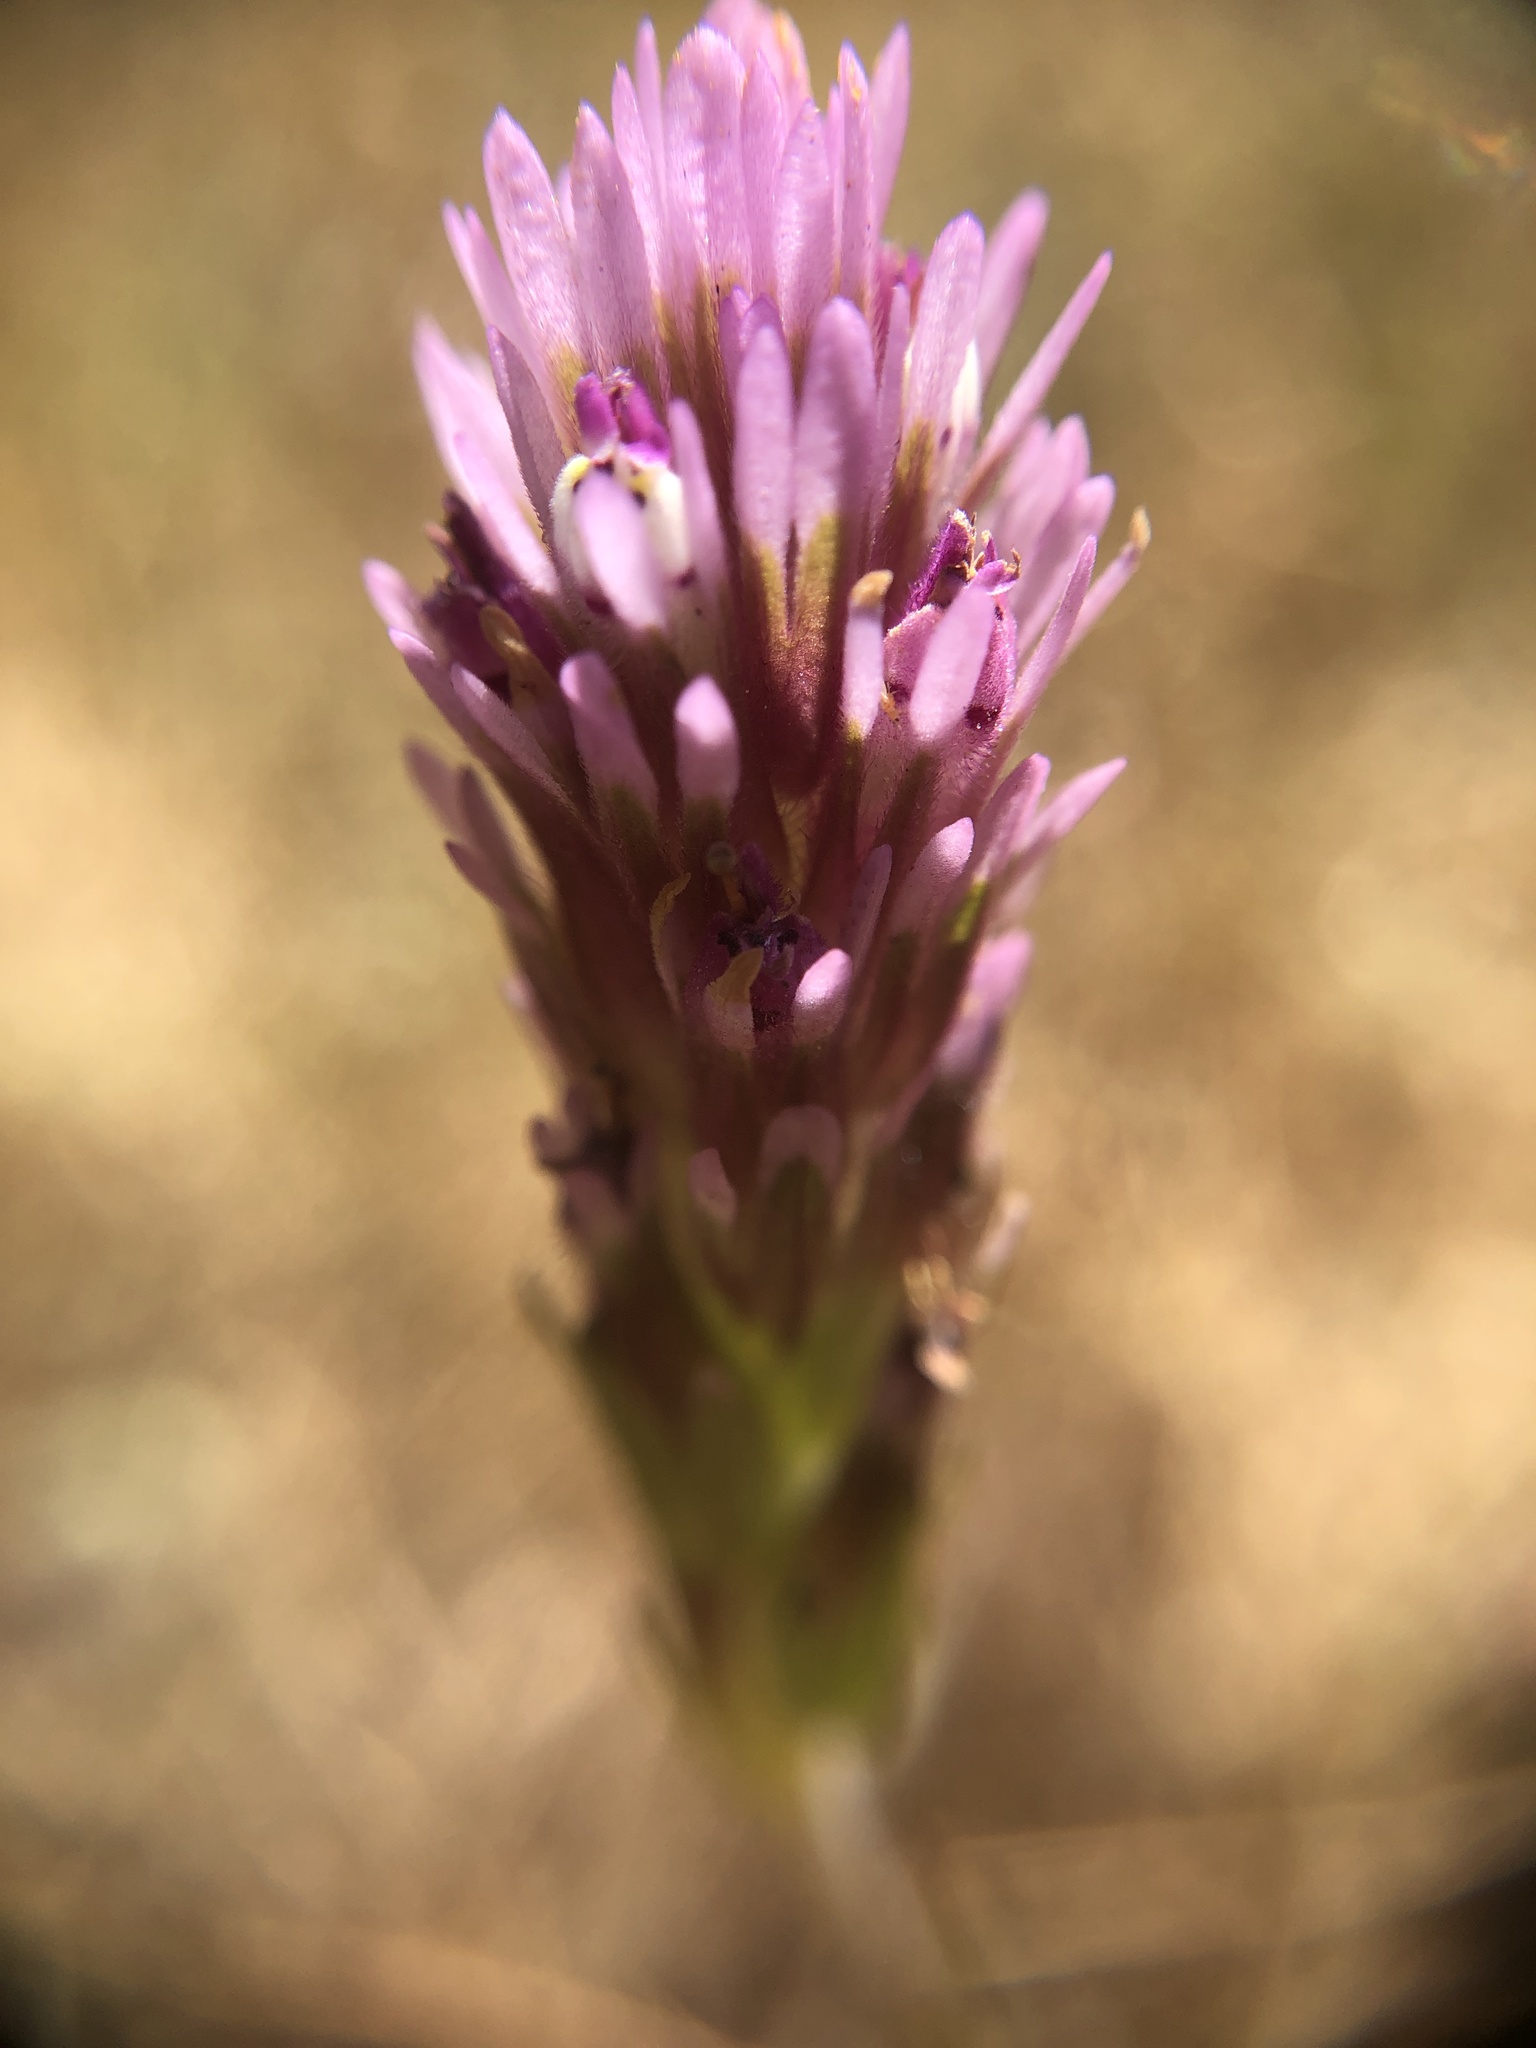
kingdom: Plantae
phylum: Tracheophyta
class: Magnoliopsida
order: Lamiales
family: Orobanchaceae
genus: Castilleja
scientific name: Castilleja densiflora
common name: Dense-flower indian paintbrush
